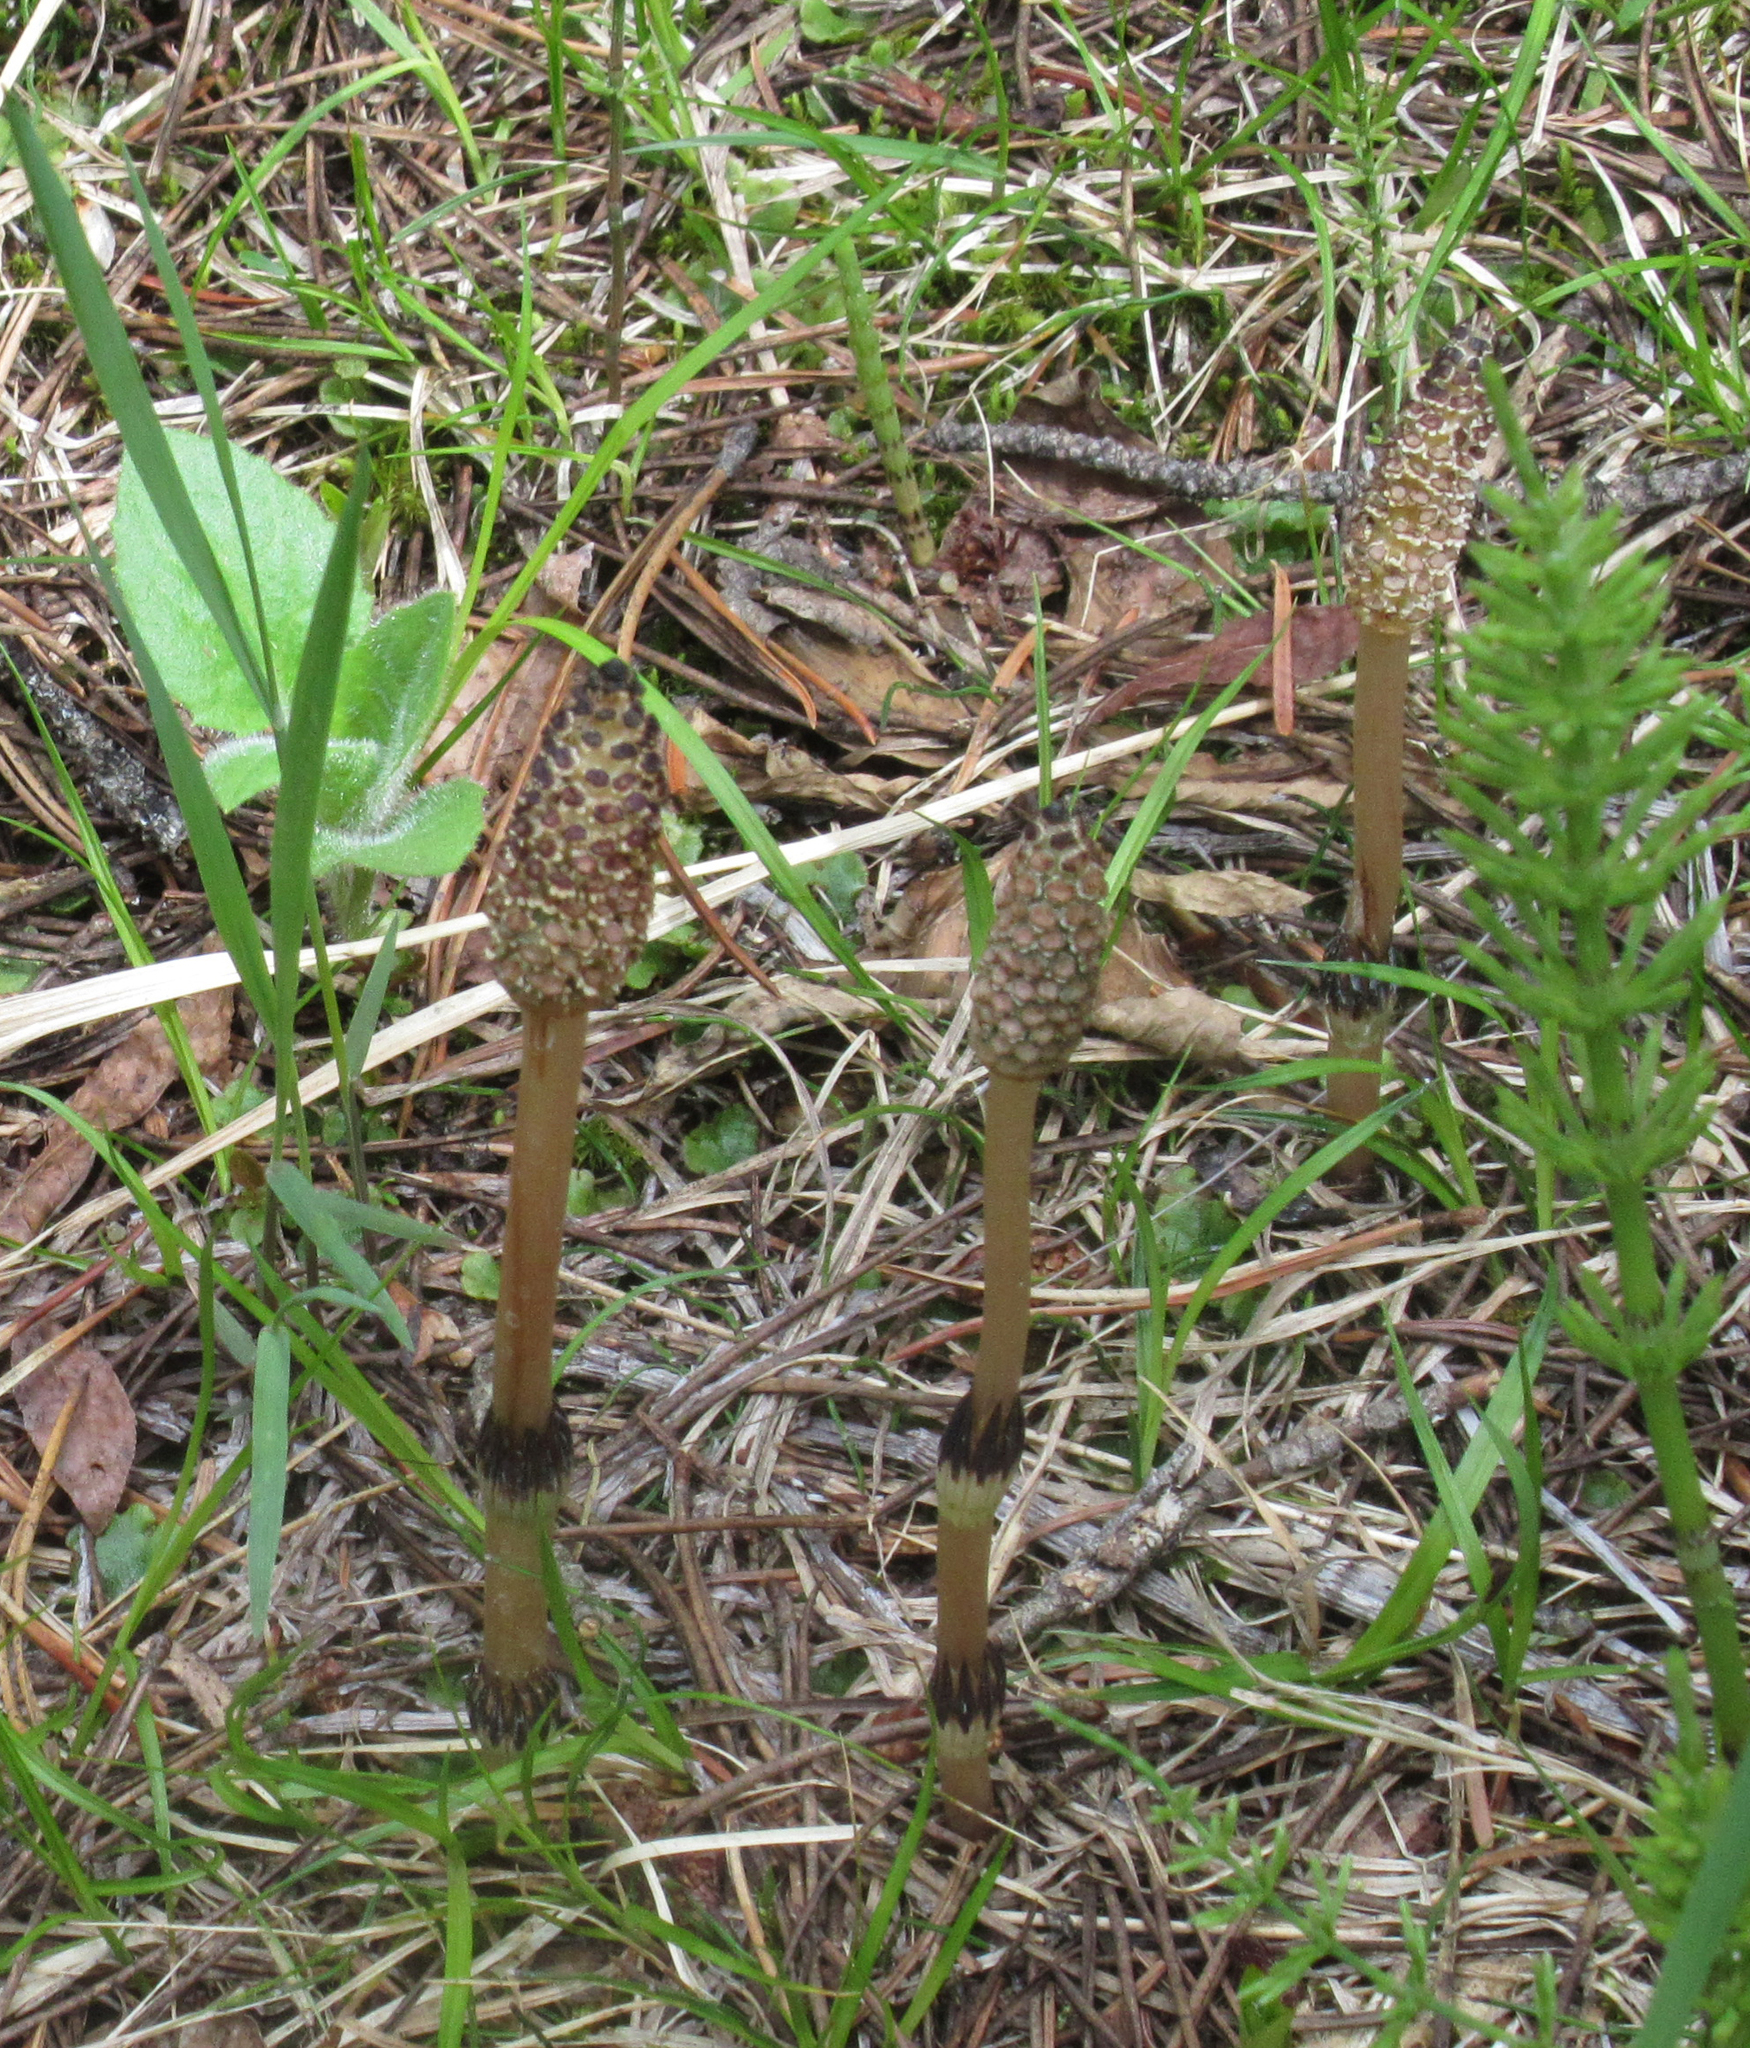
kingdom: Plantae
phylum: Tracheophyta
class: Polypodiopsida
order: Equisetales
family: Equisetaceae
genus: Equisetum
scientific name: Equisetum arvense
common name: Field horsetail
